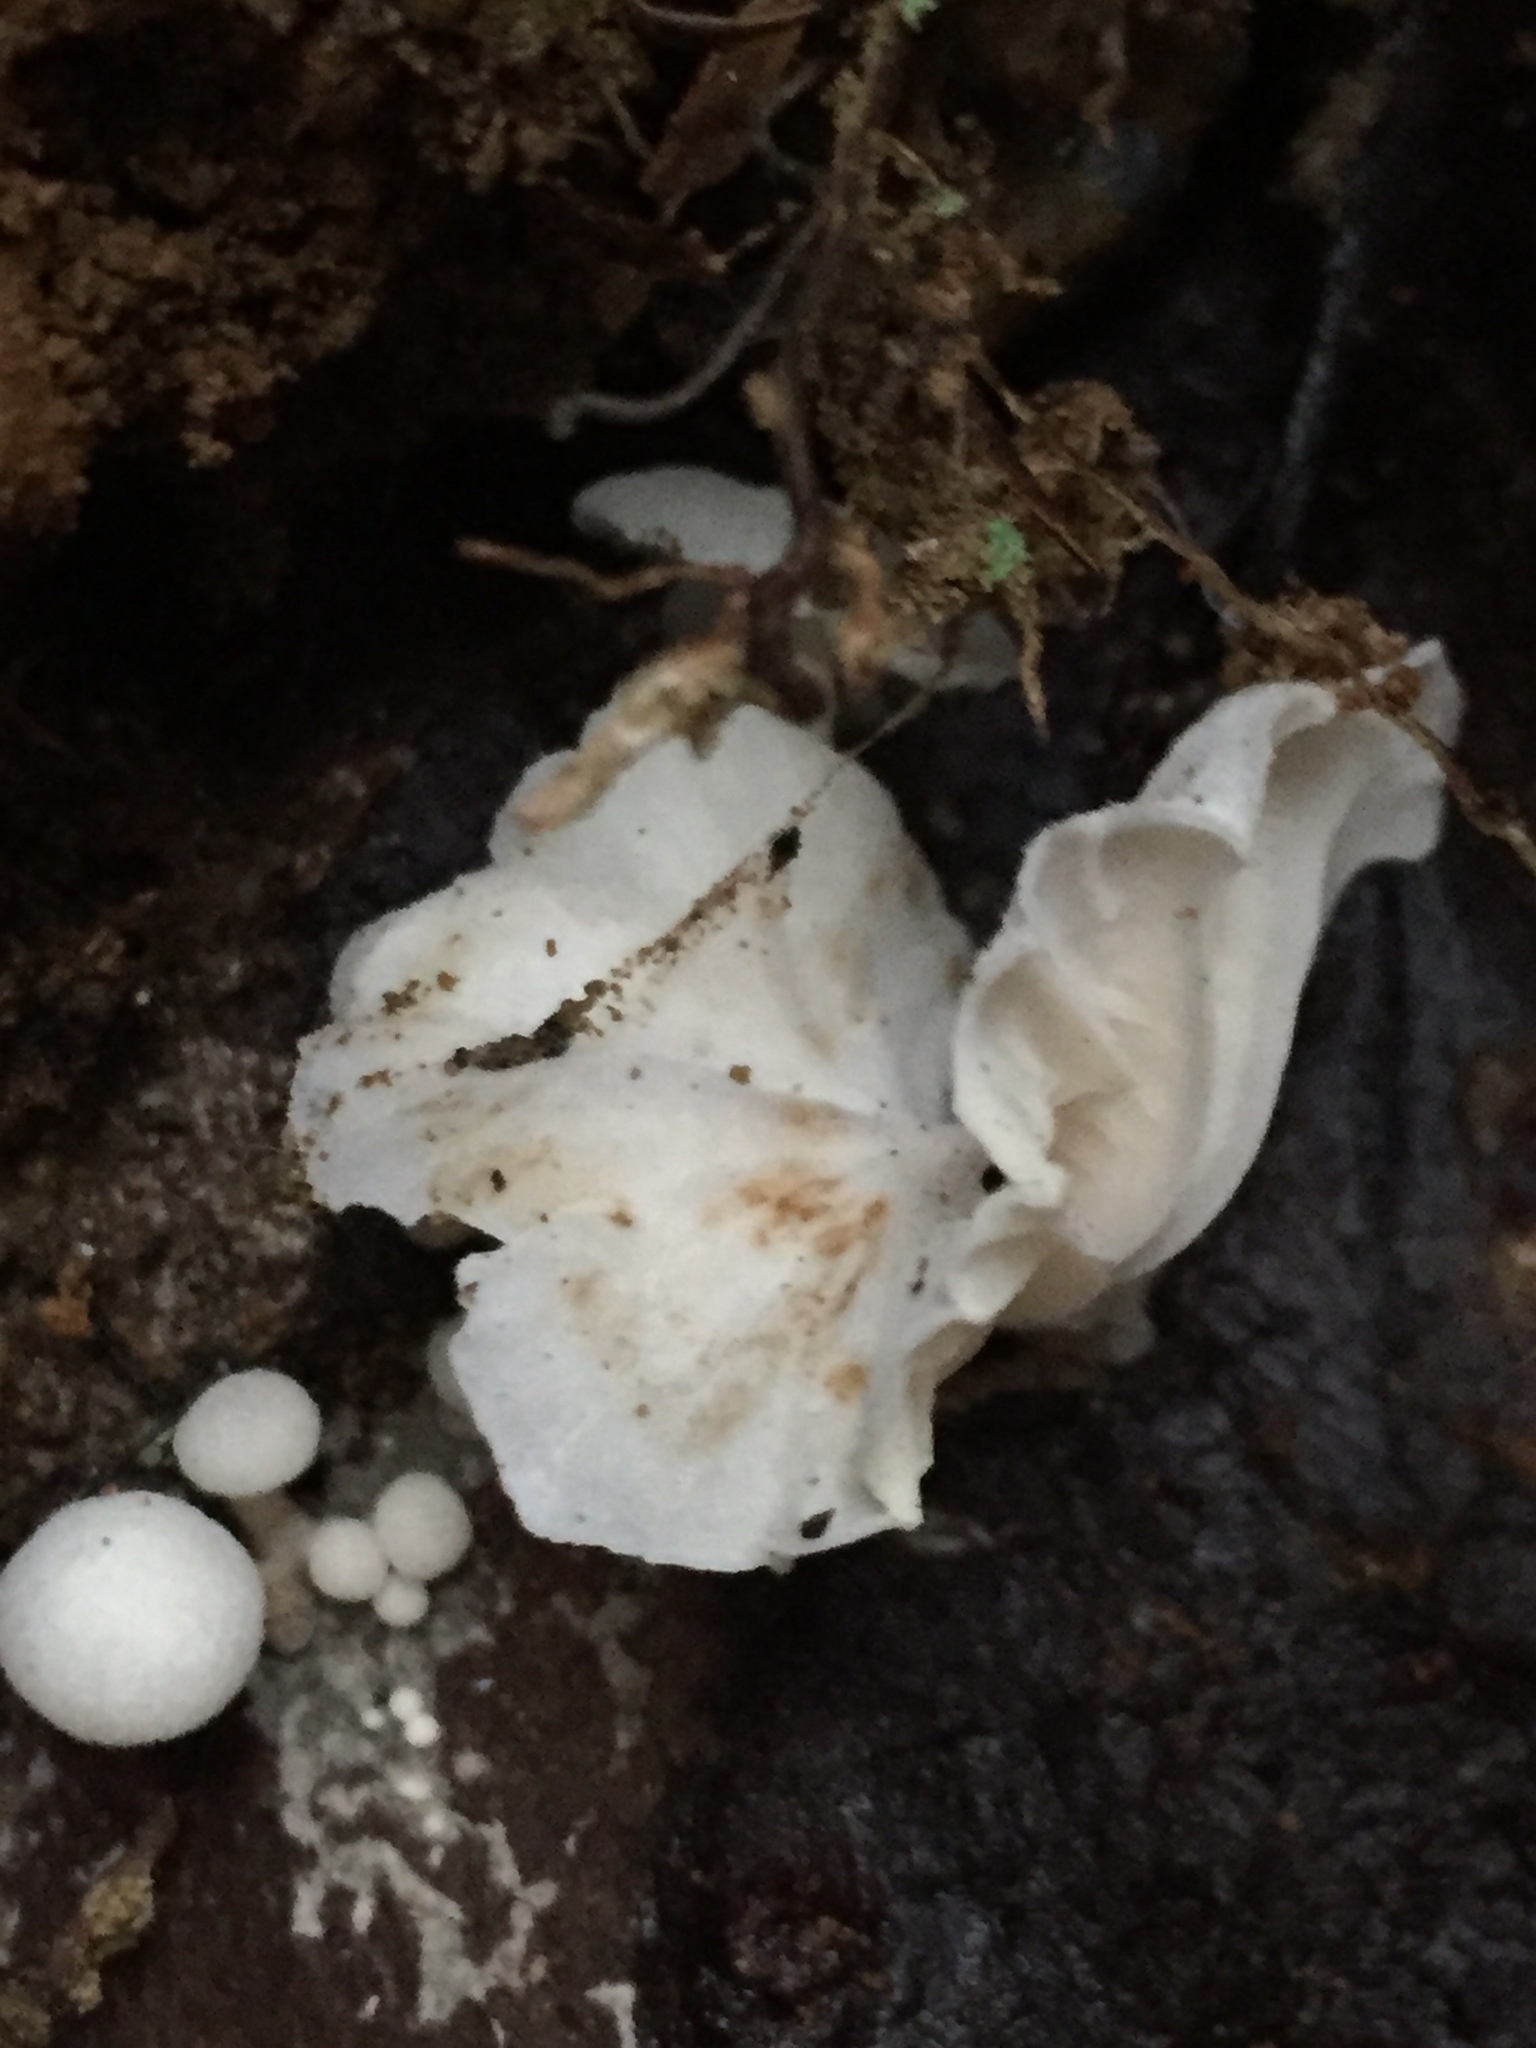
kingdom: Fungi
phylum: Basidiomycota
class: Agaricomycetes
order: Agaricales
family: Omphalotaceae
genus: Marasmiellus
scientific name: Marasmiellus candidus
